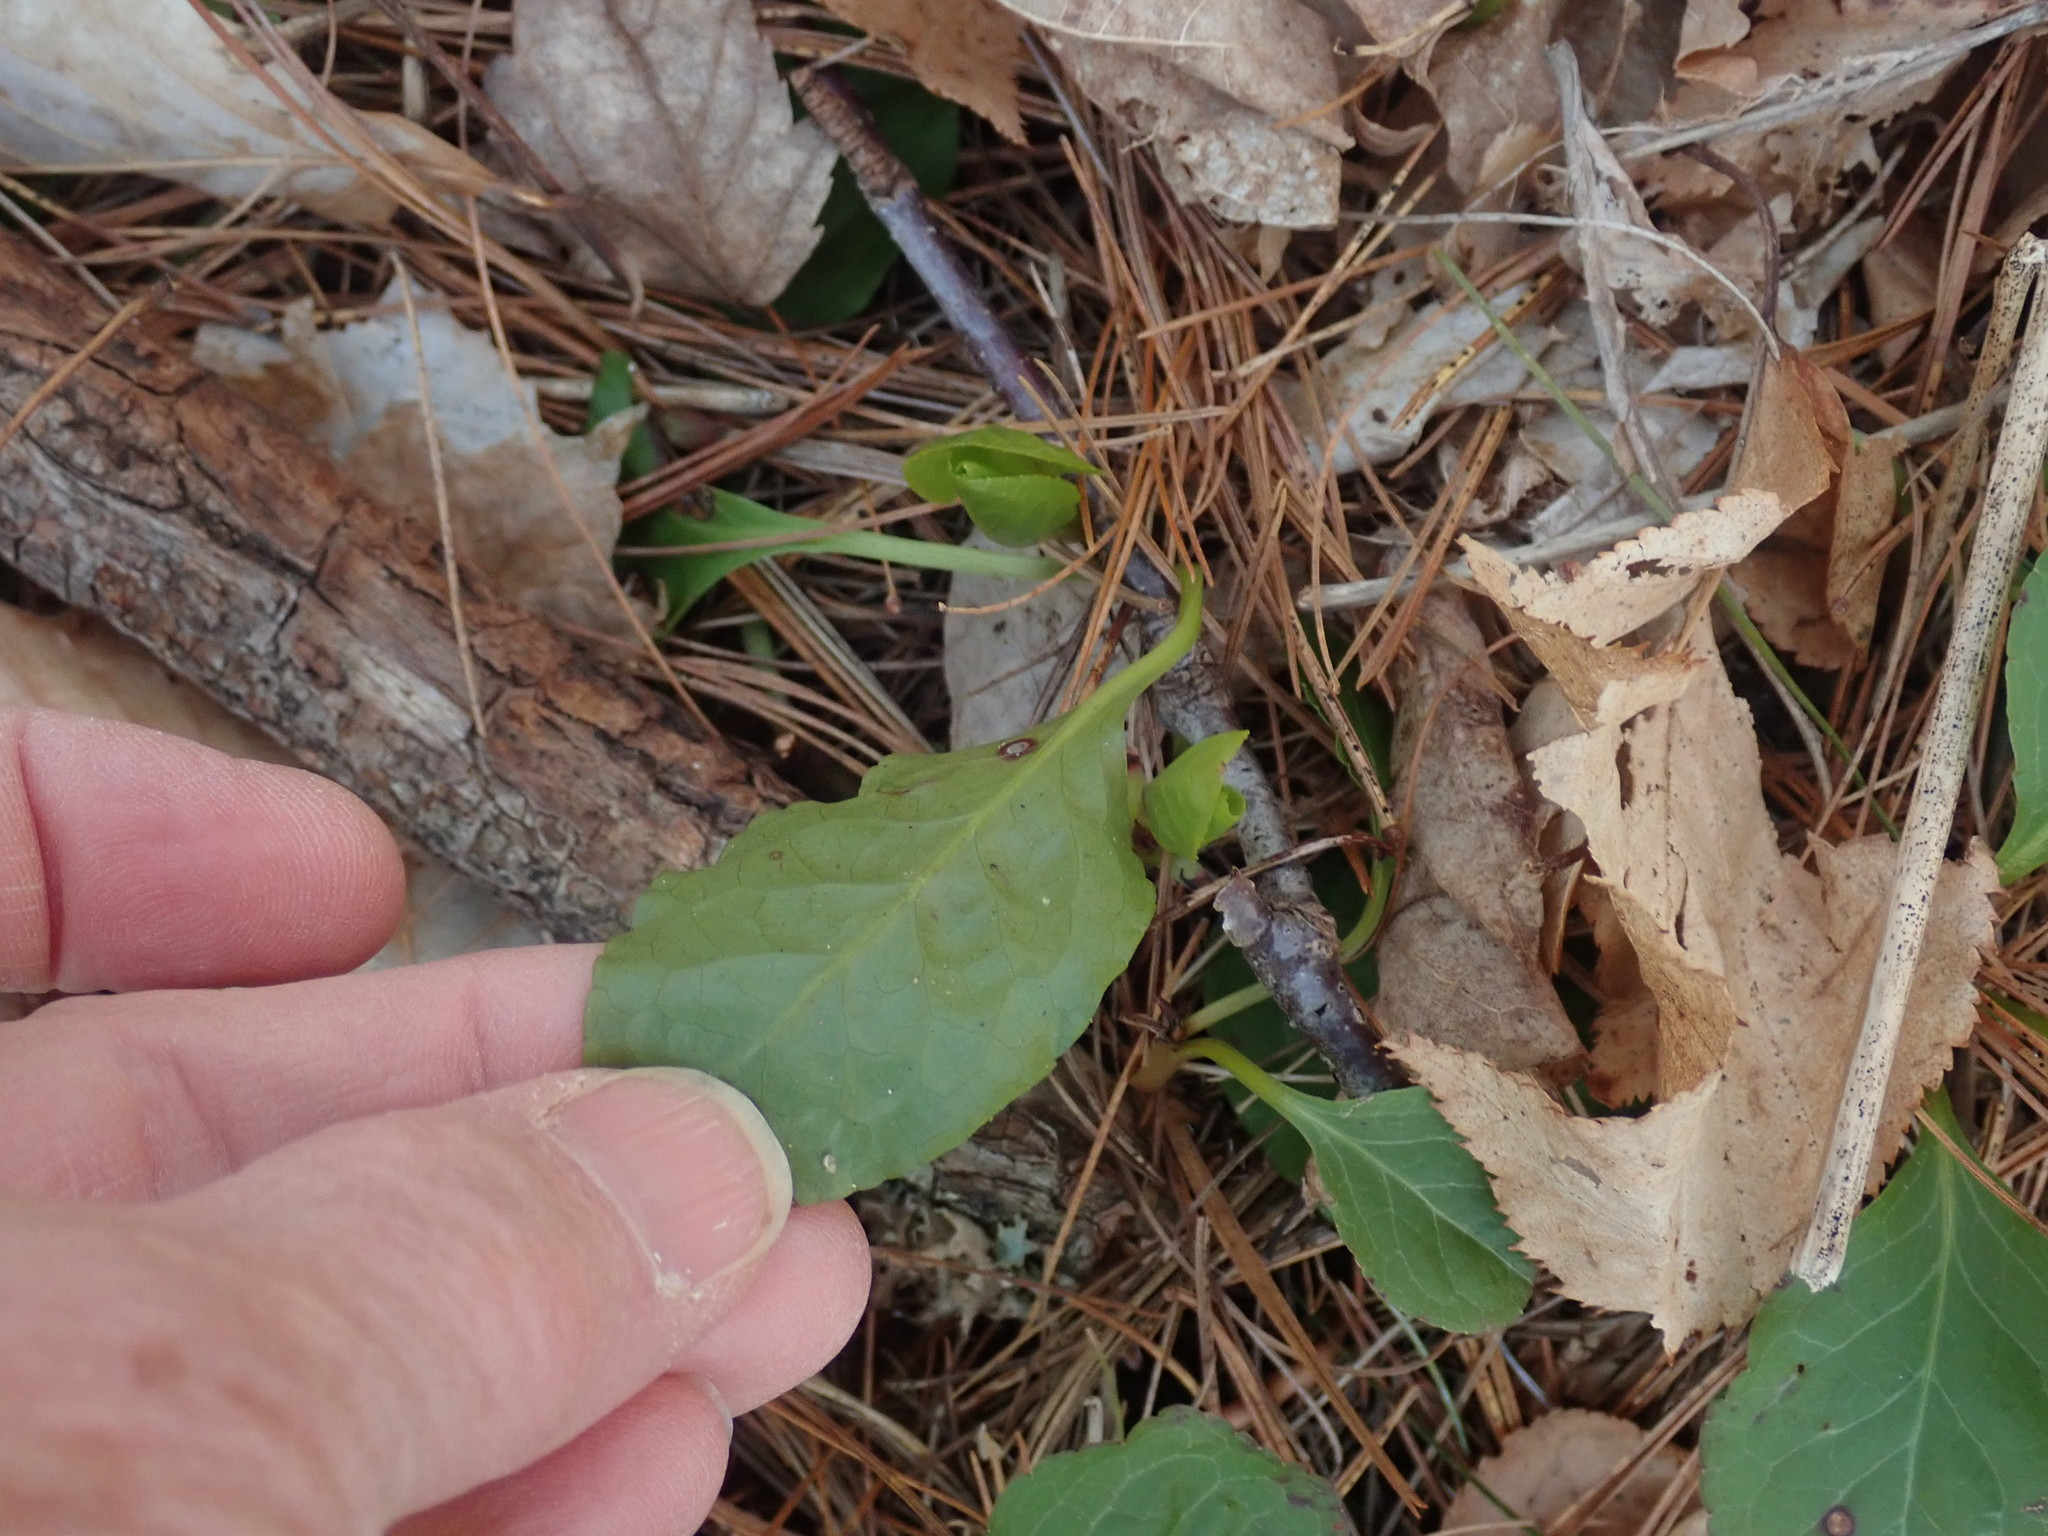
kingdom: Plantae
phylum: Tracheophyta
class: Magnoliopsida
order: Ericales
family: Ericaceae
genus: Pyrola
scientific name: Pyrola elliptica
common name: Shinleaf
